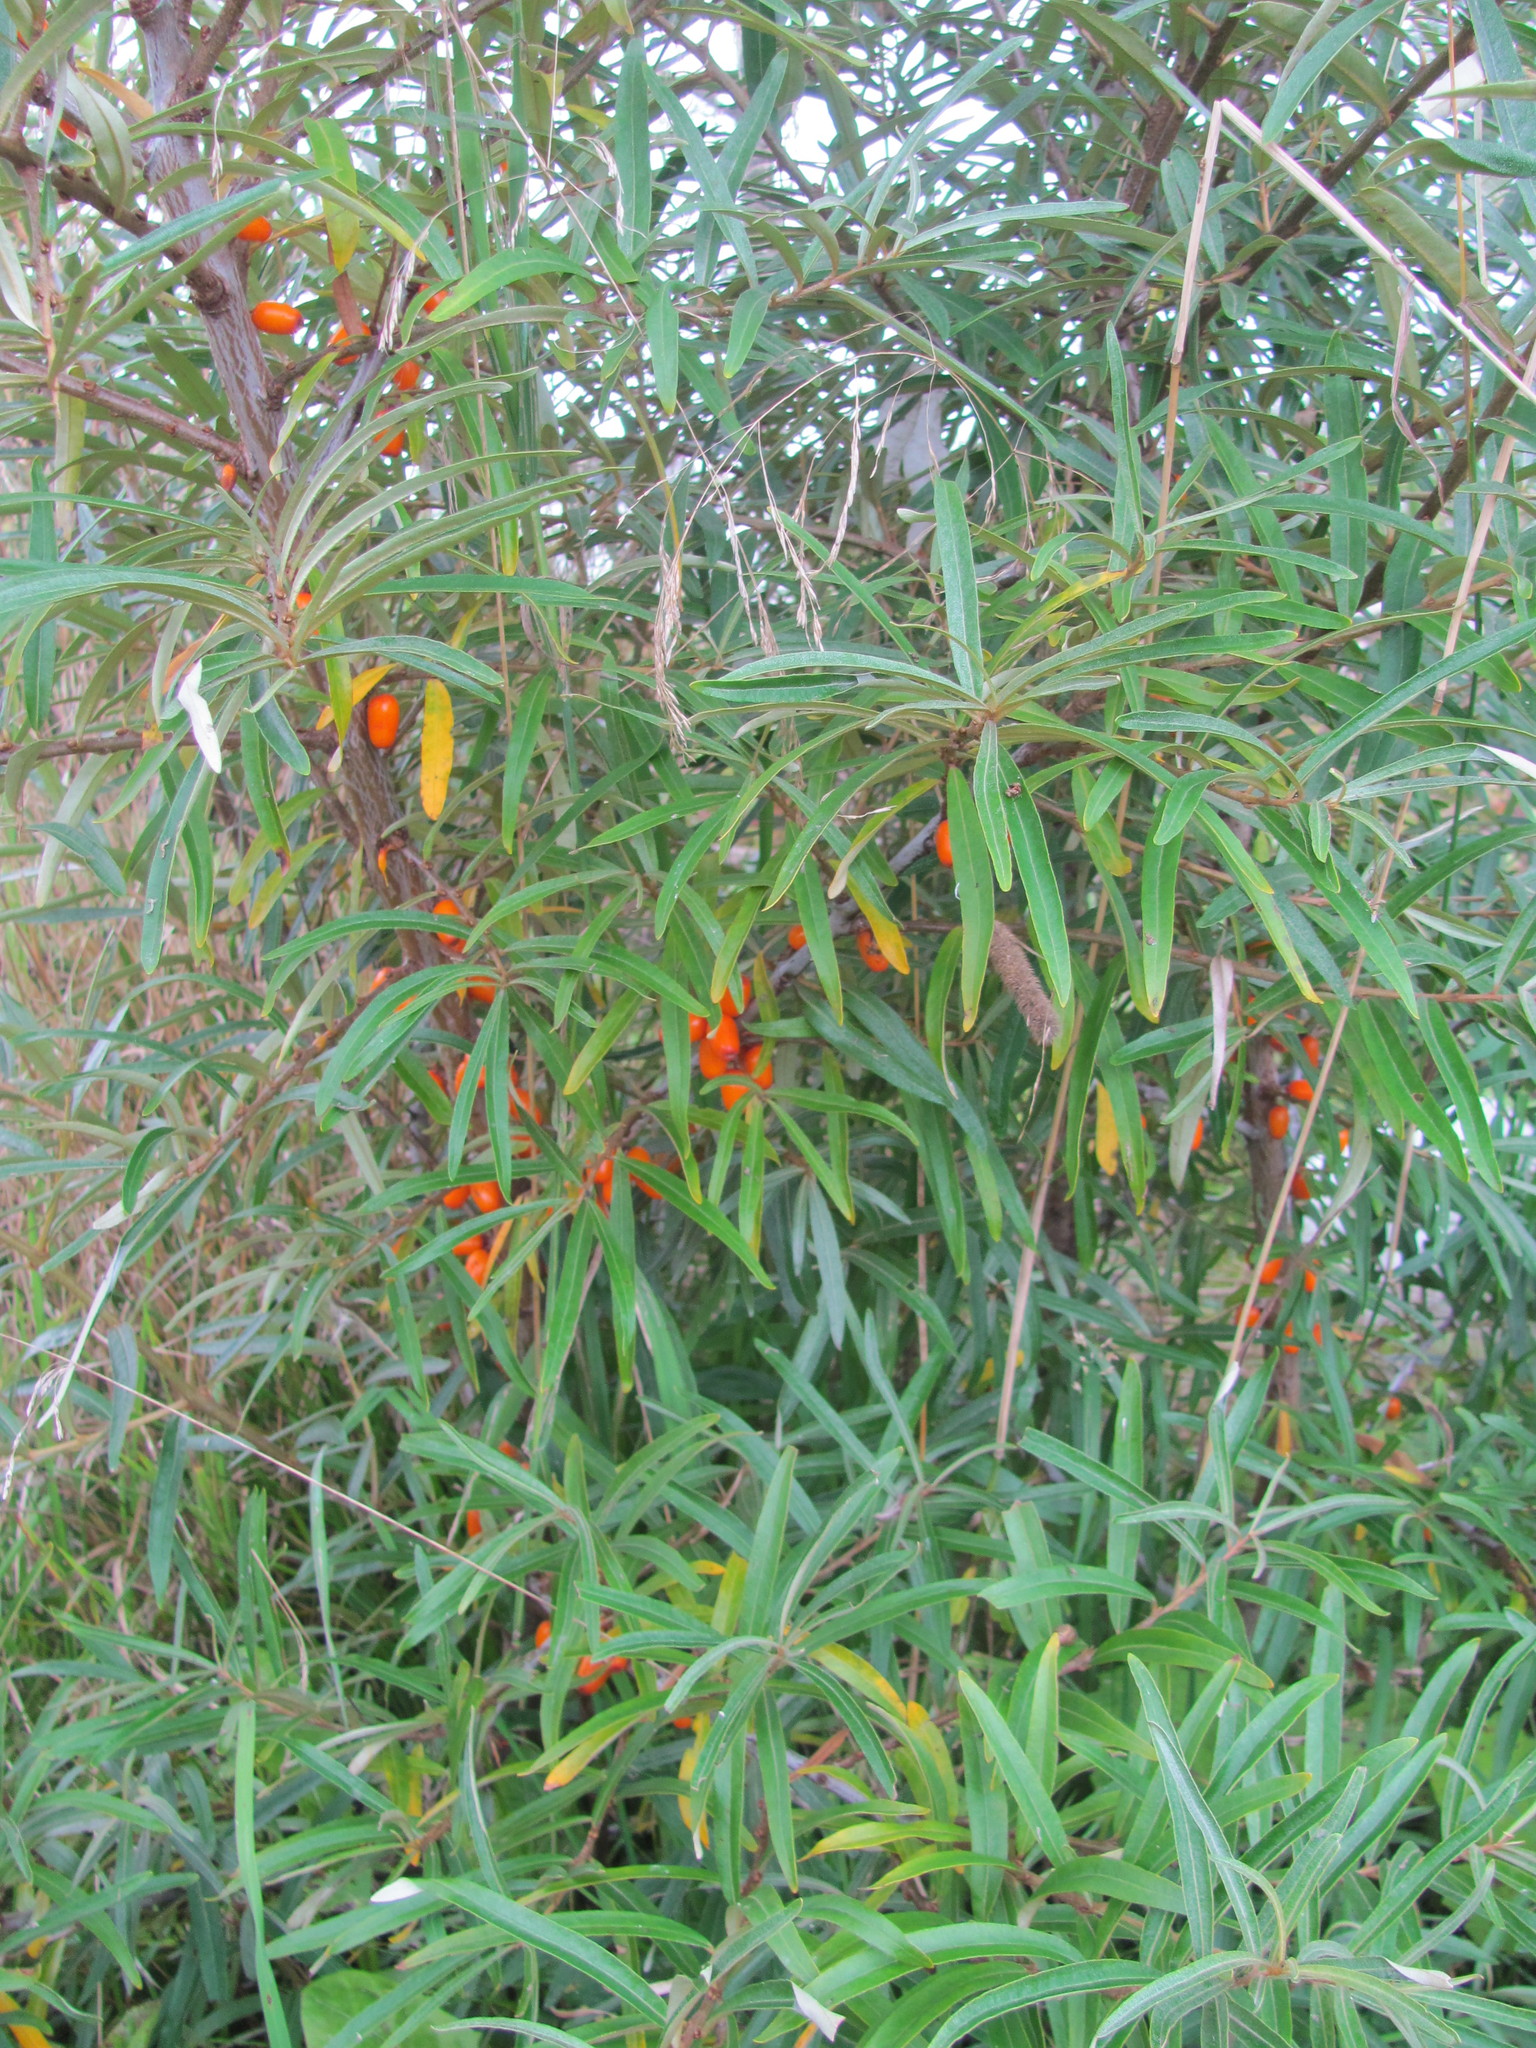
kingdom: Plantae
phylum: Tracheophyta
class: Magnoliopsida
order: Rosales
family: Elaeagnaceae
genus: Hippophae
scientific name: Hippophae rhamnoides
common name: Sea-buckthorn
